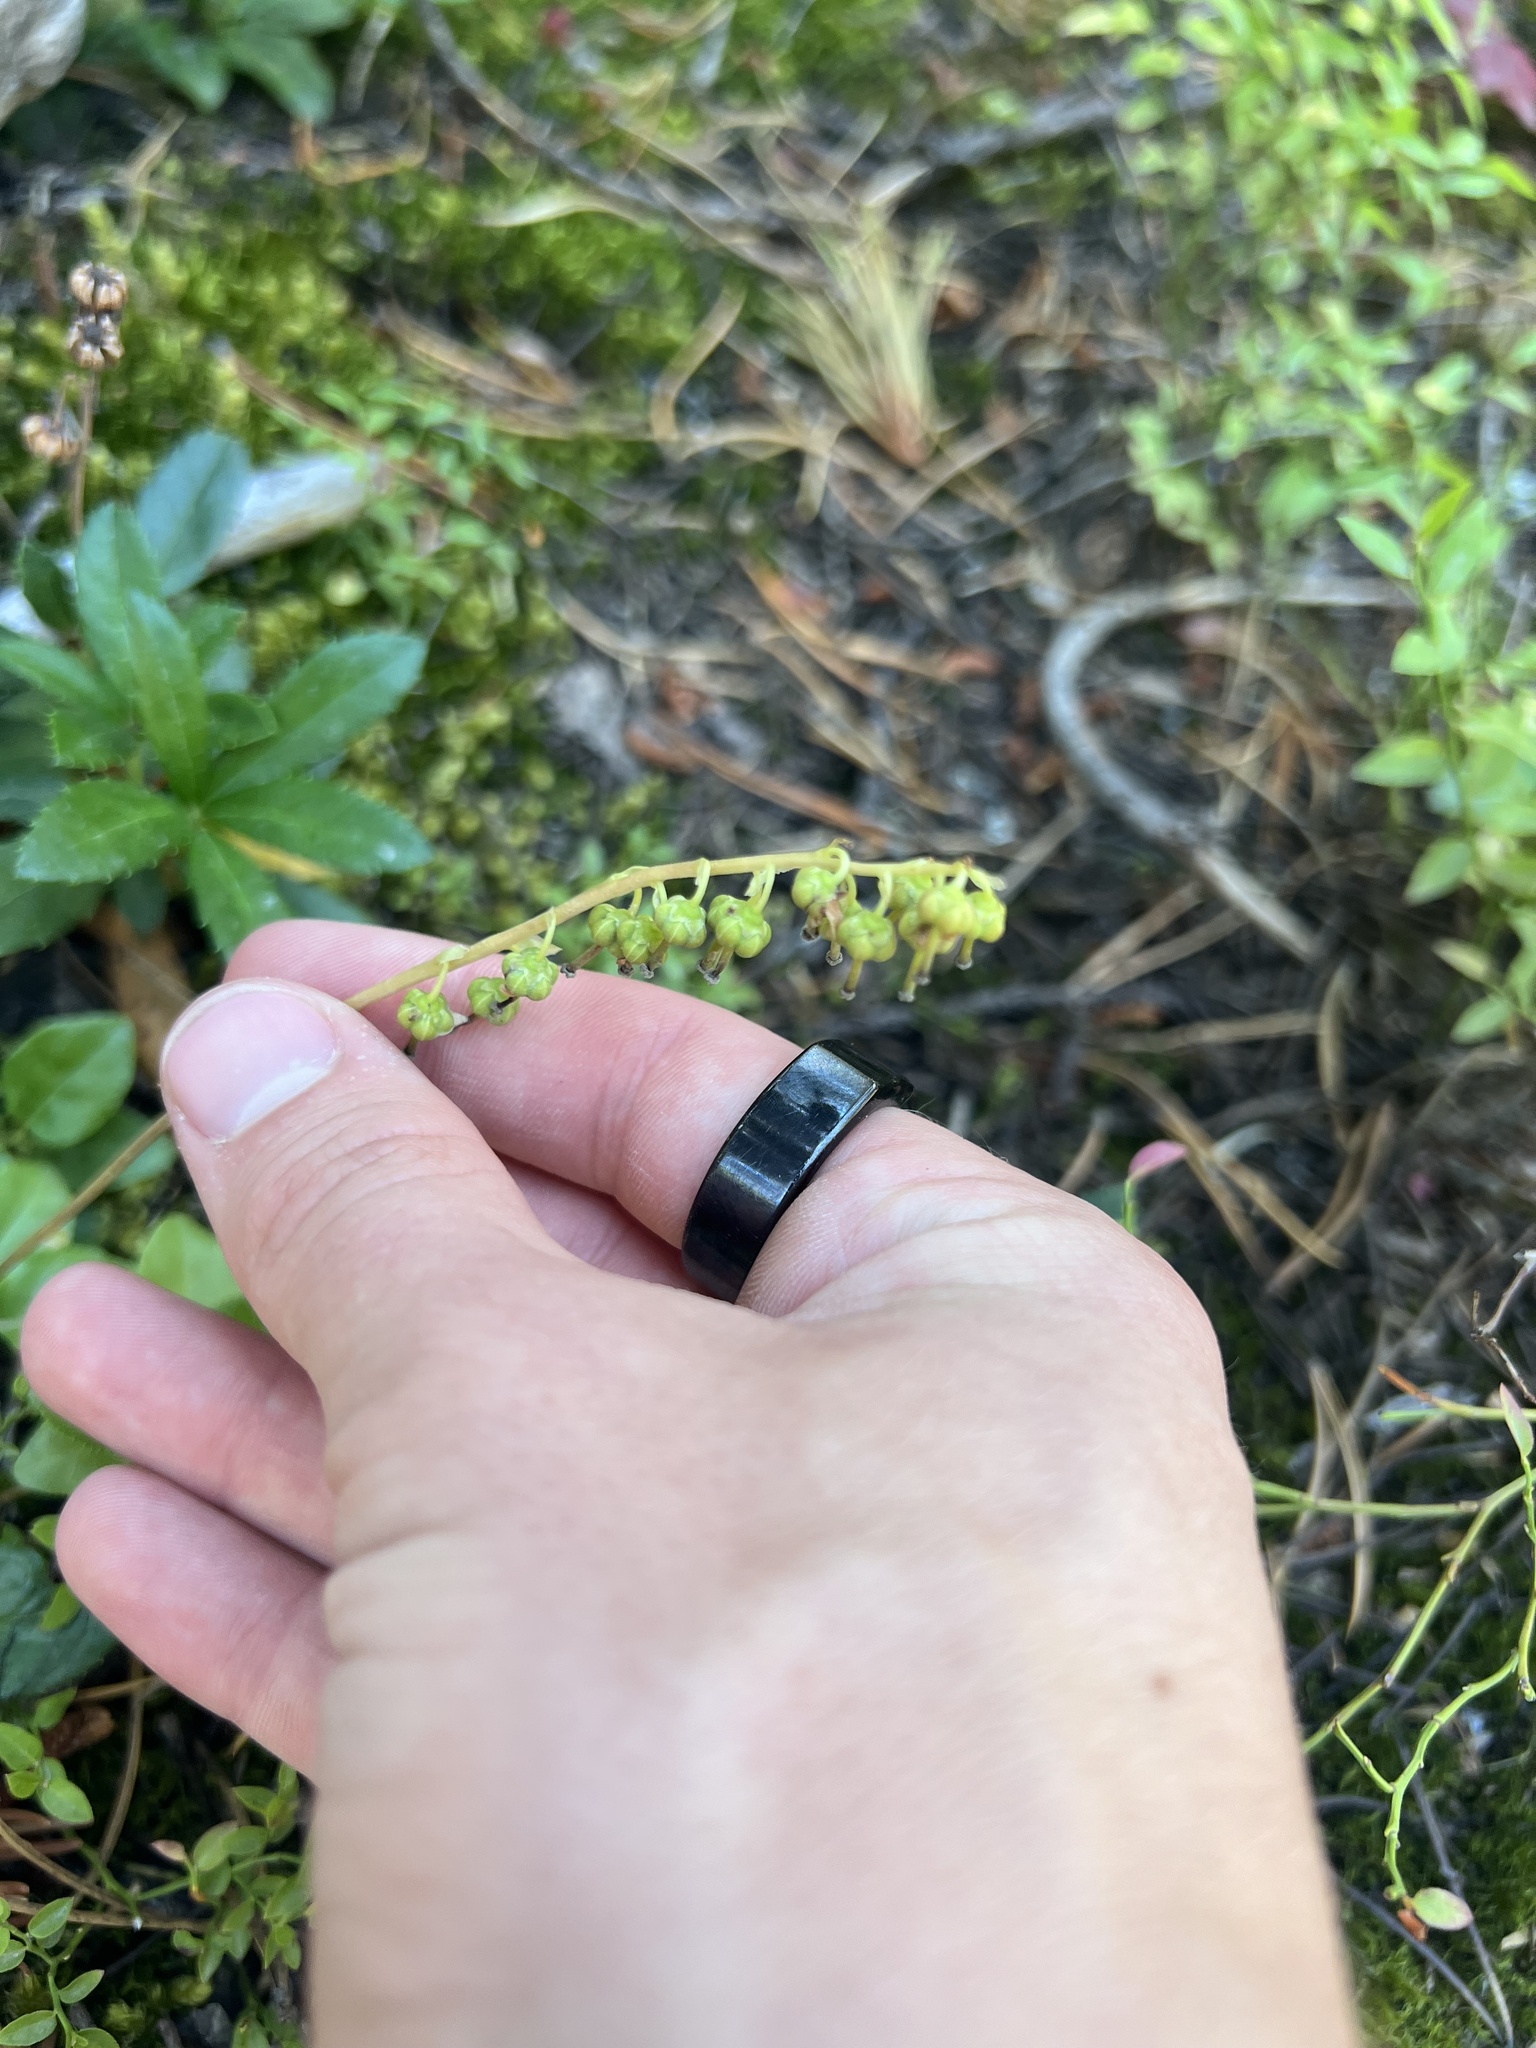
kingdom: Plantae
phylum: Tracheophyta
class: Magnoliopsida
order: Ericales
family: Ericaceae
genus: Orthilia
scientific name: Orthilia secunda
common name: One-sided orthilia
